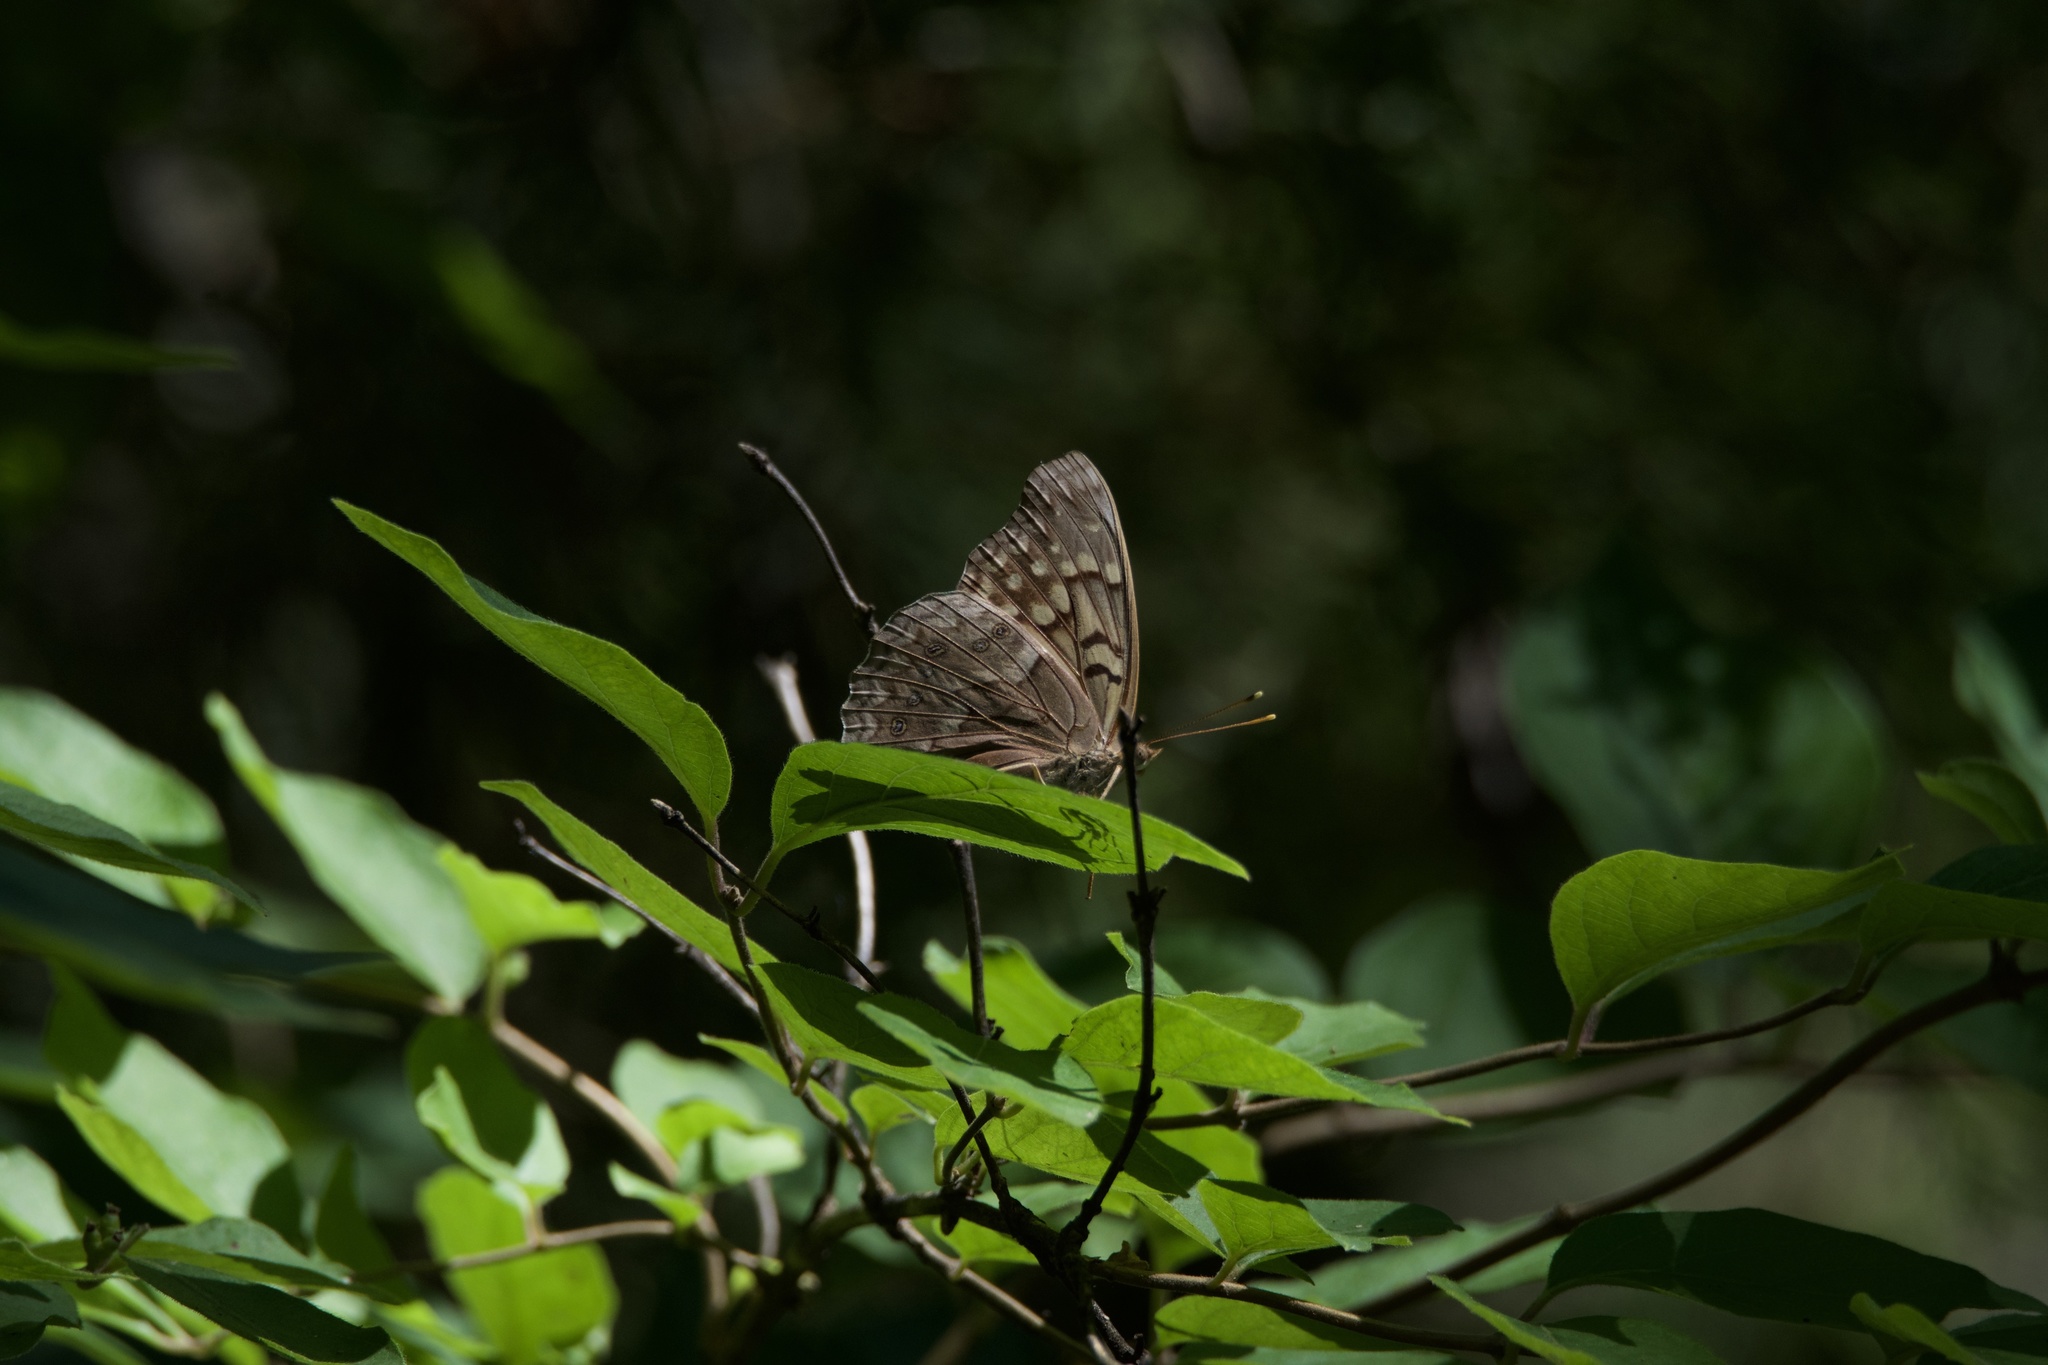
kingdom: Animalia
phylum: Arthropoda
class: Insecta
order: Lepidoptera
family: Nymphalidae
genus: Asterocampa
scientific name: Asterocampa clyton
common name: Tawny emperor
